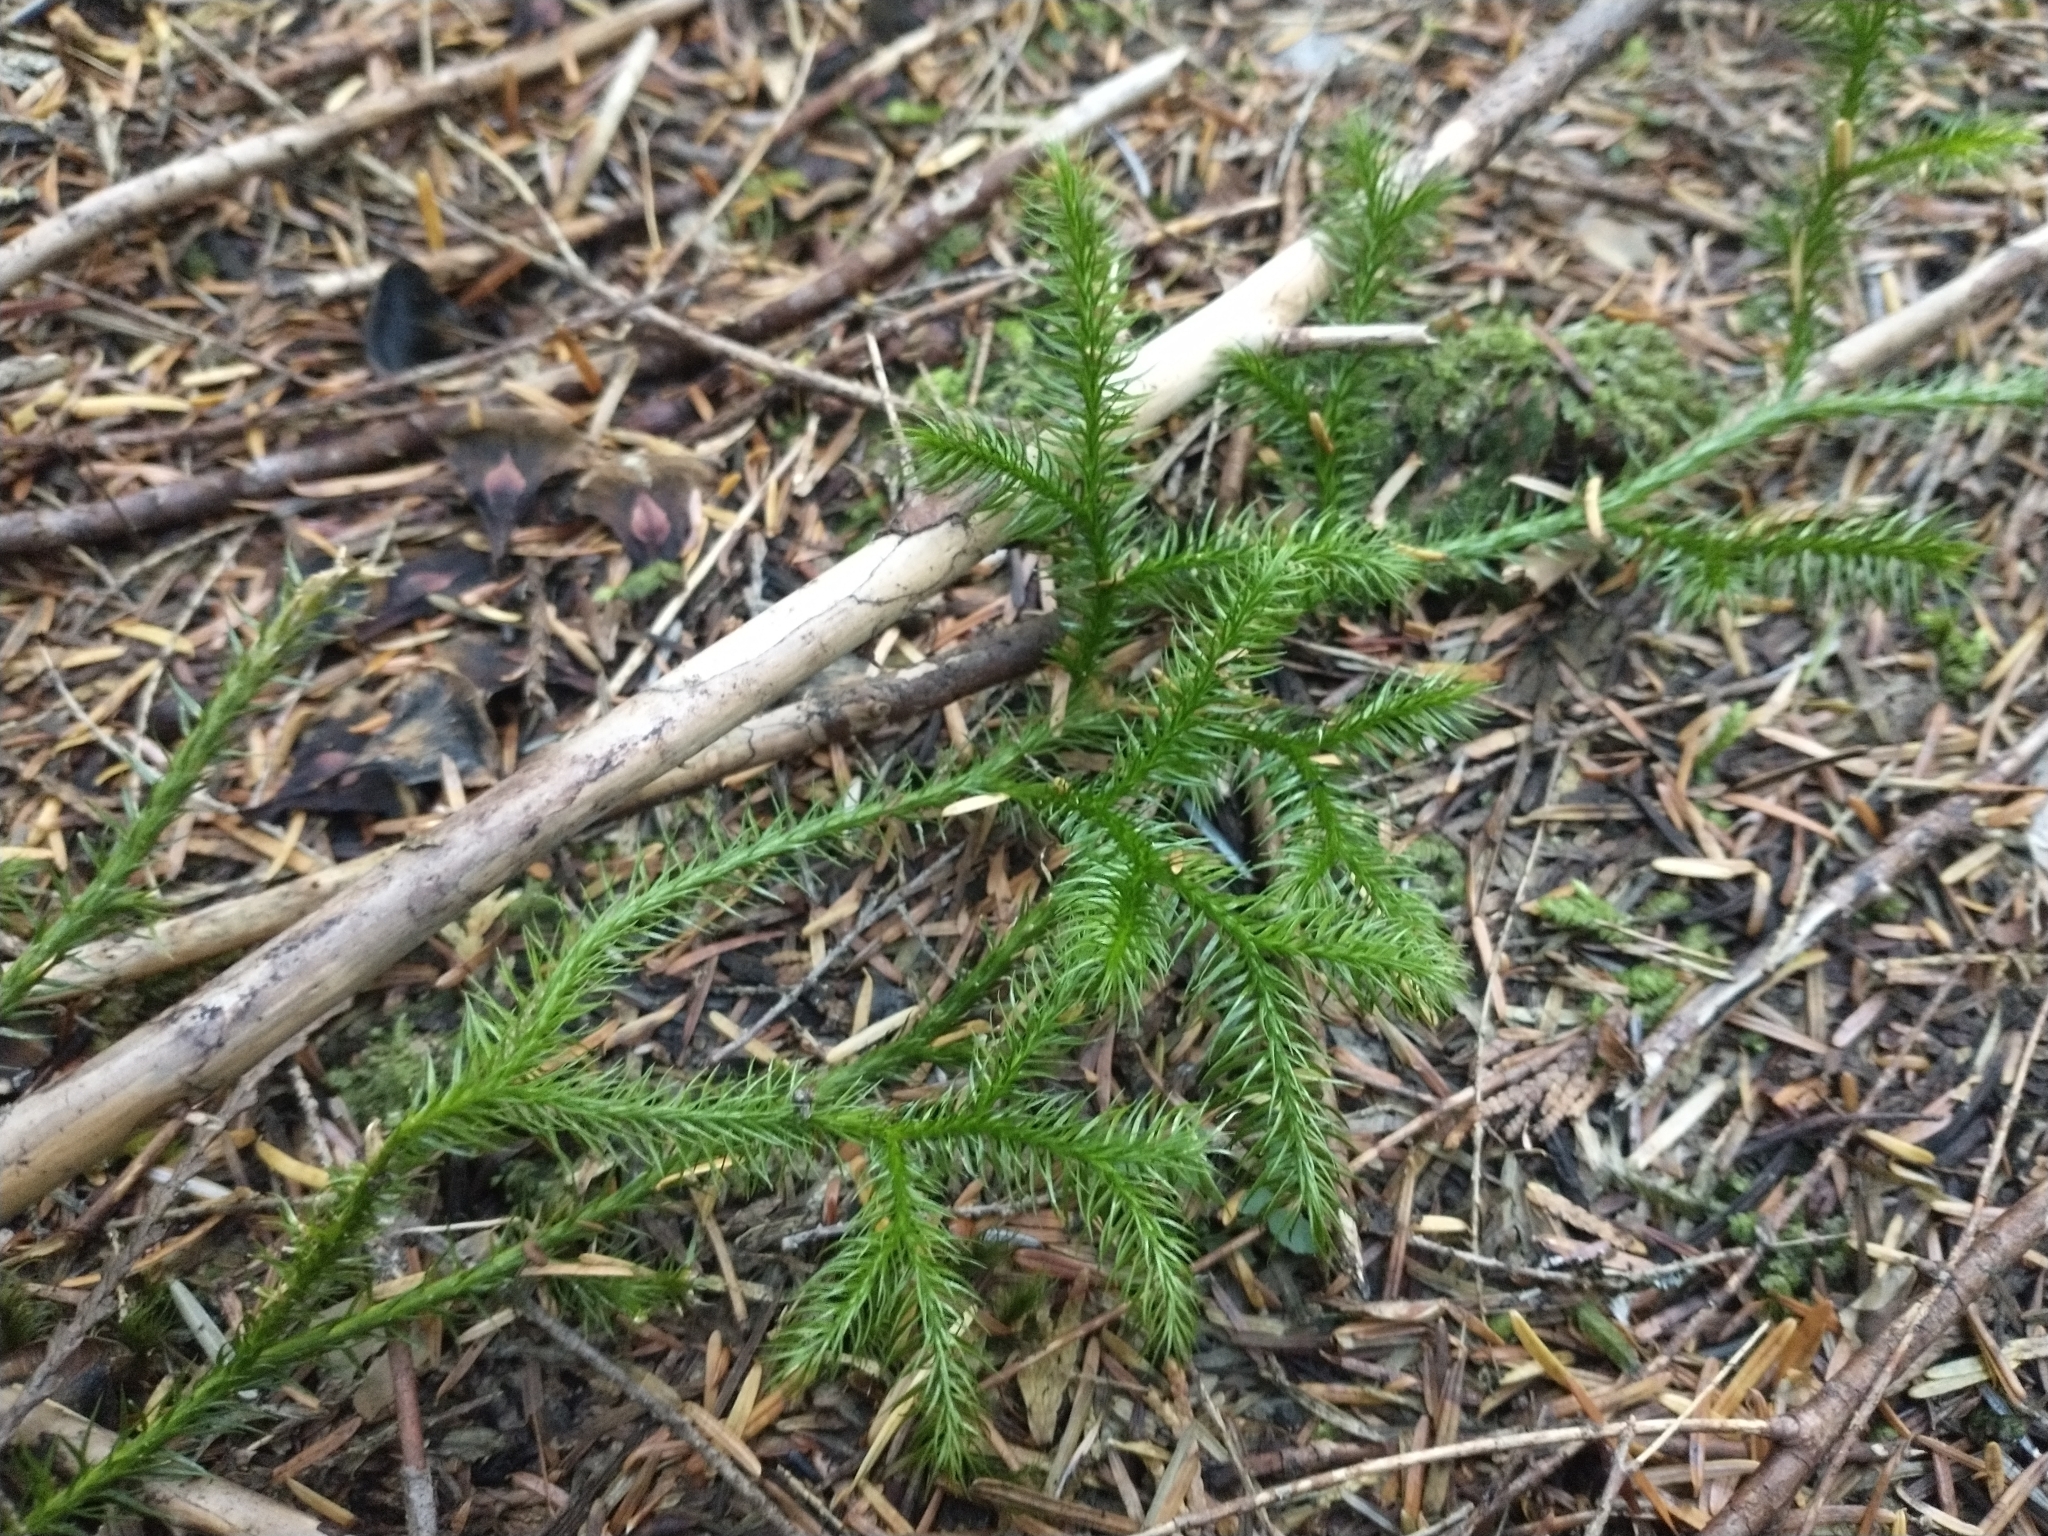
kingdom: Plantae
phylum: Tracheophyta
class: Lycopodiopsida
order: Lycopodiales
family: Lycopodiaceae
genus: Lycopodium
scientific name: Lycopodium clavatum
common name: Stag's-horn clubmoss
